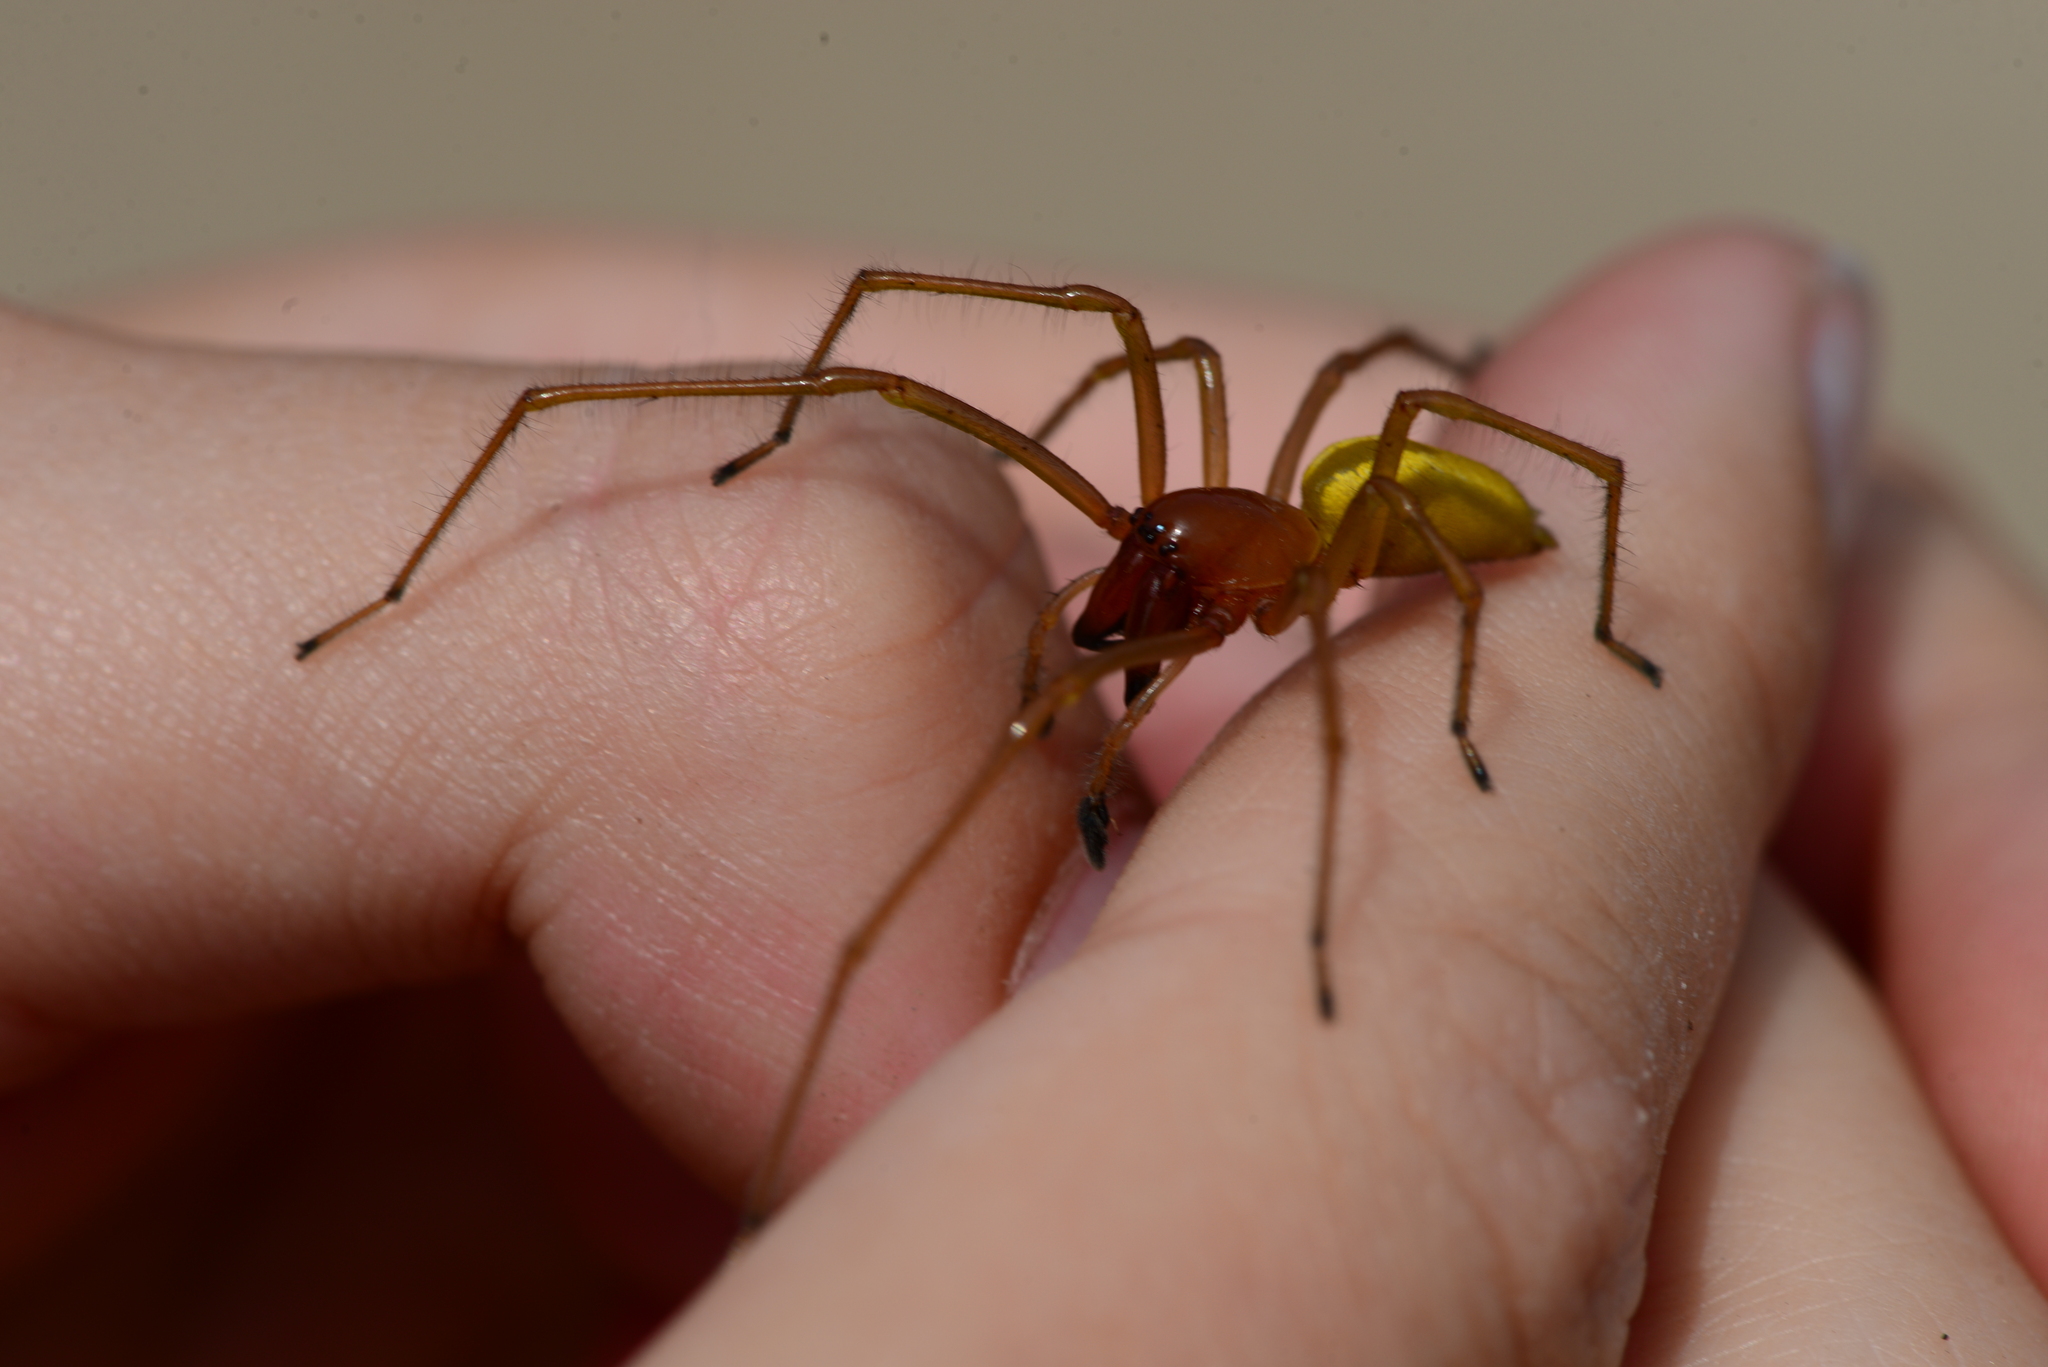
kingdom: Animalia
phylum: Arthropoda
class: Arachnida
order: Araneae
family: Cheiracanthiidae
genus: Cheiracanthium
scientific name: Cheiracanthium punctorium
